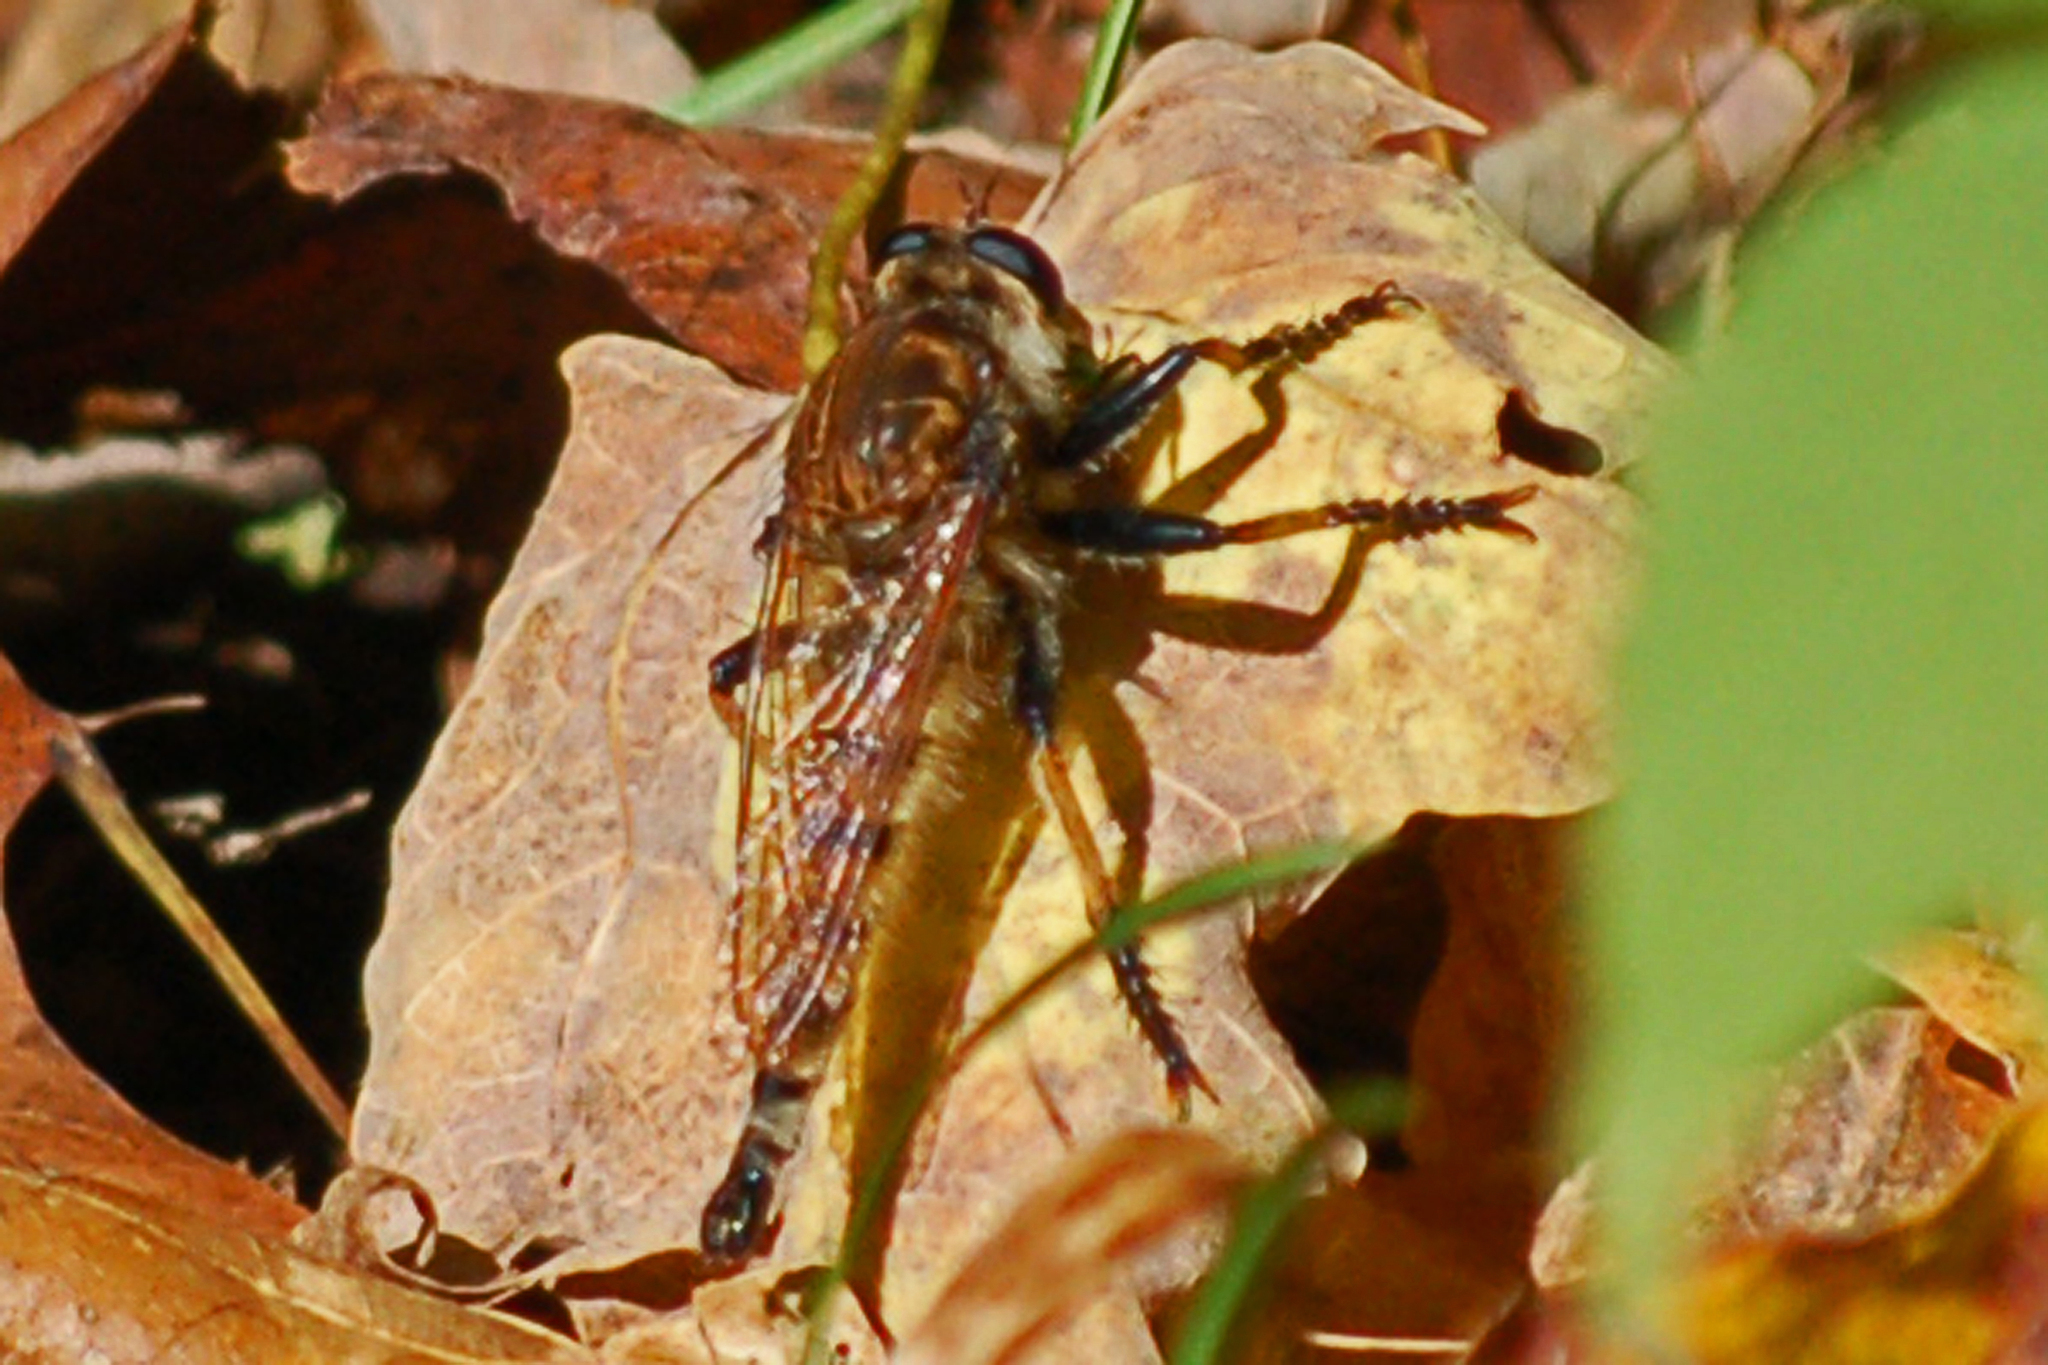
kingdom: Animalia
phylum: Arthropoda
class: Insecta
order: Diptera
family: Asilidae
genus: Promachus
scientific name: Promachus rufipes
